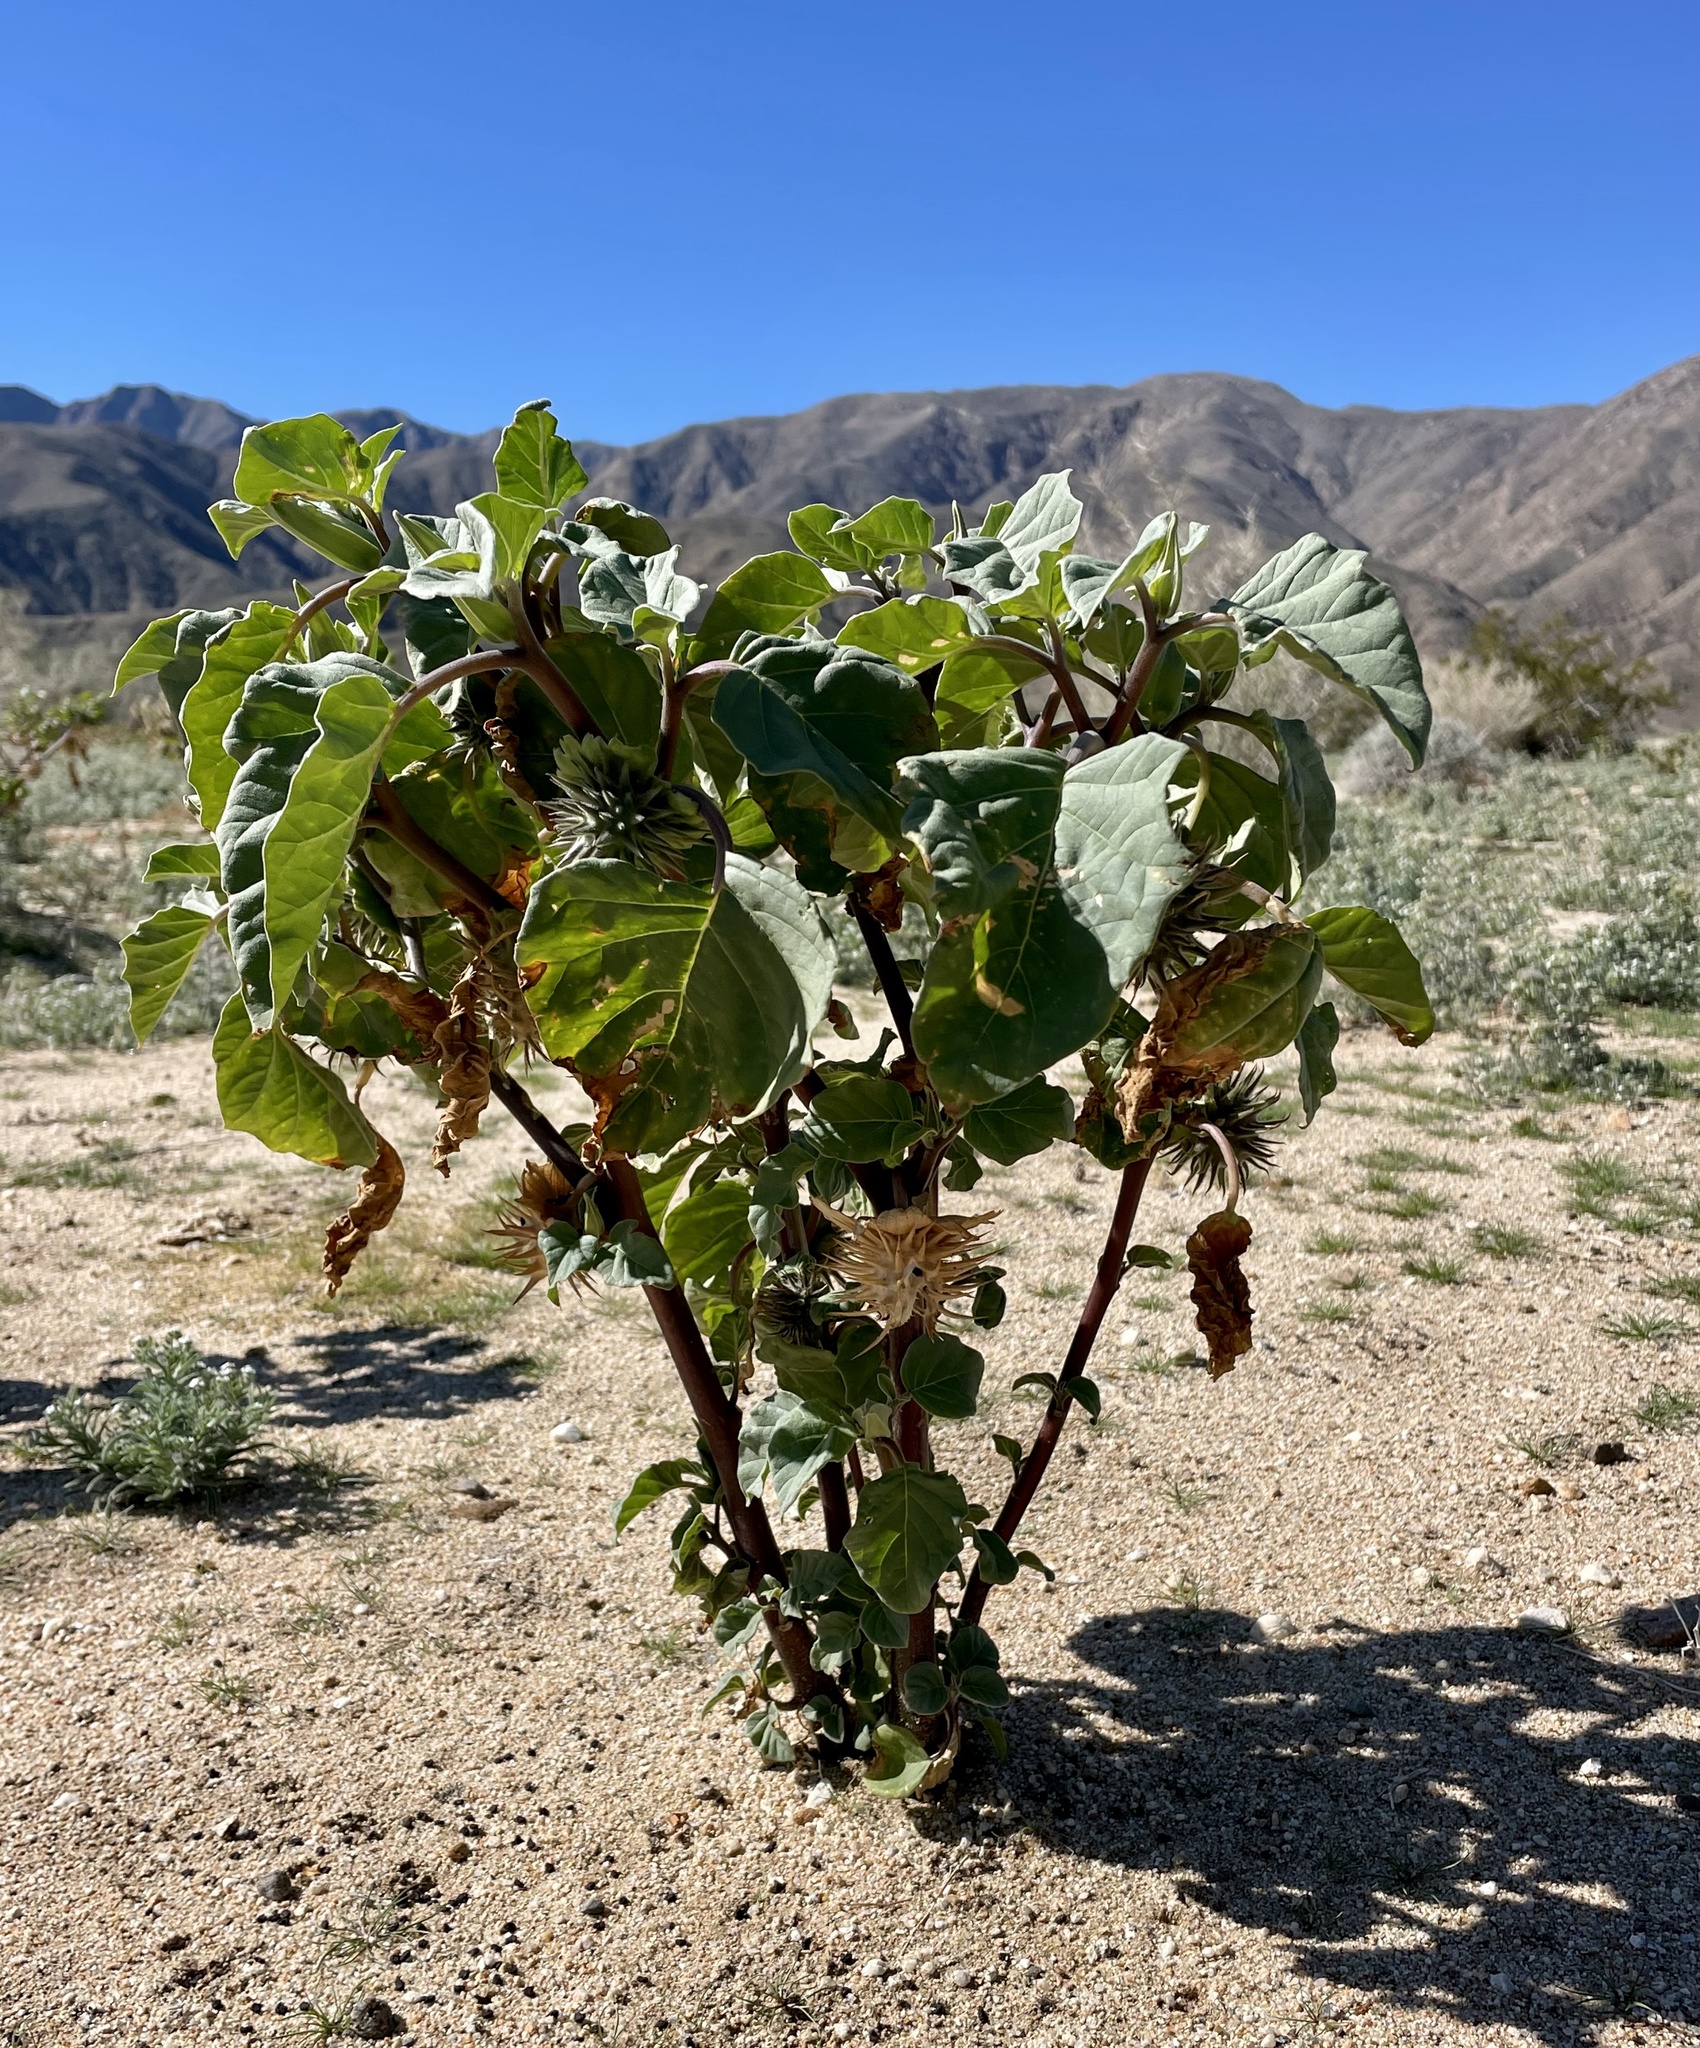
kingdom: Plantae
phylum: Tracheophyta
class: Magnoliopsida
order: Solanales
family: Solanaceae
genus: Datura
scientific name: Datura discolor
